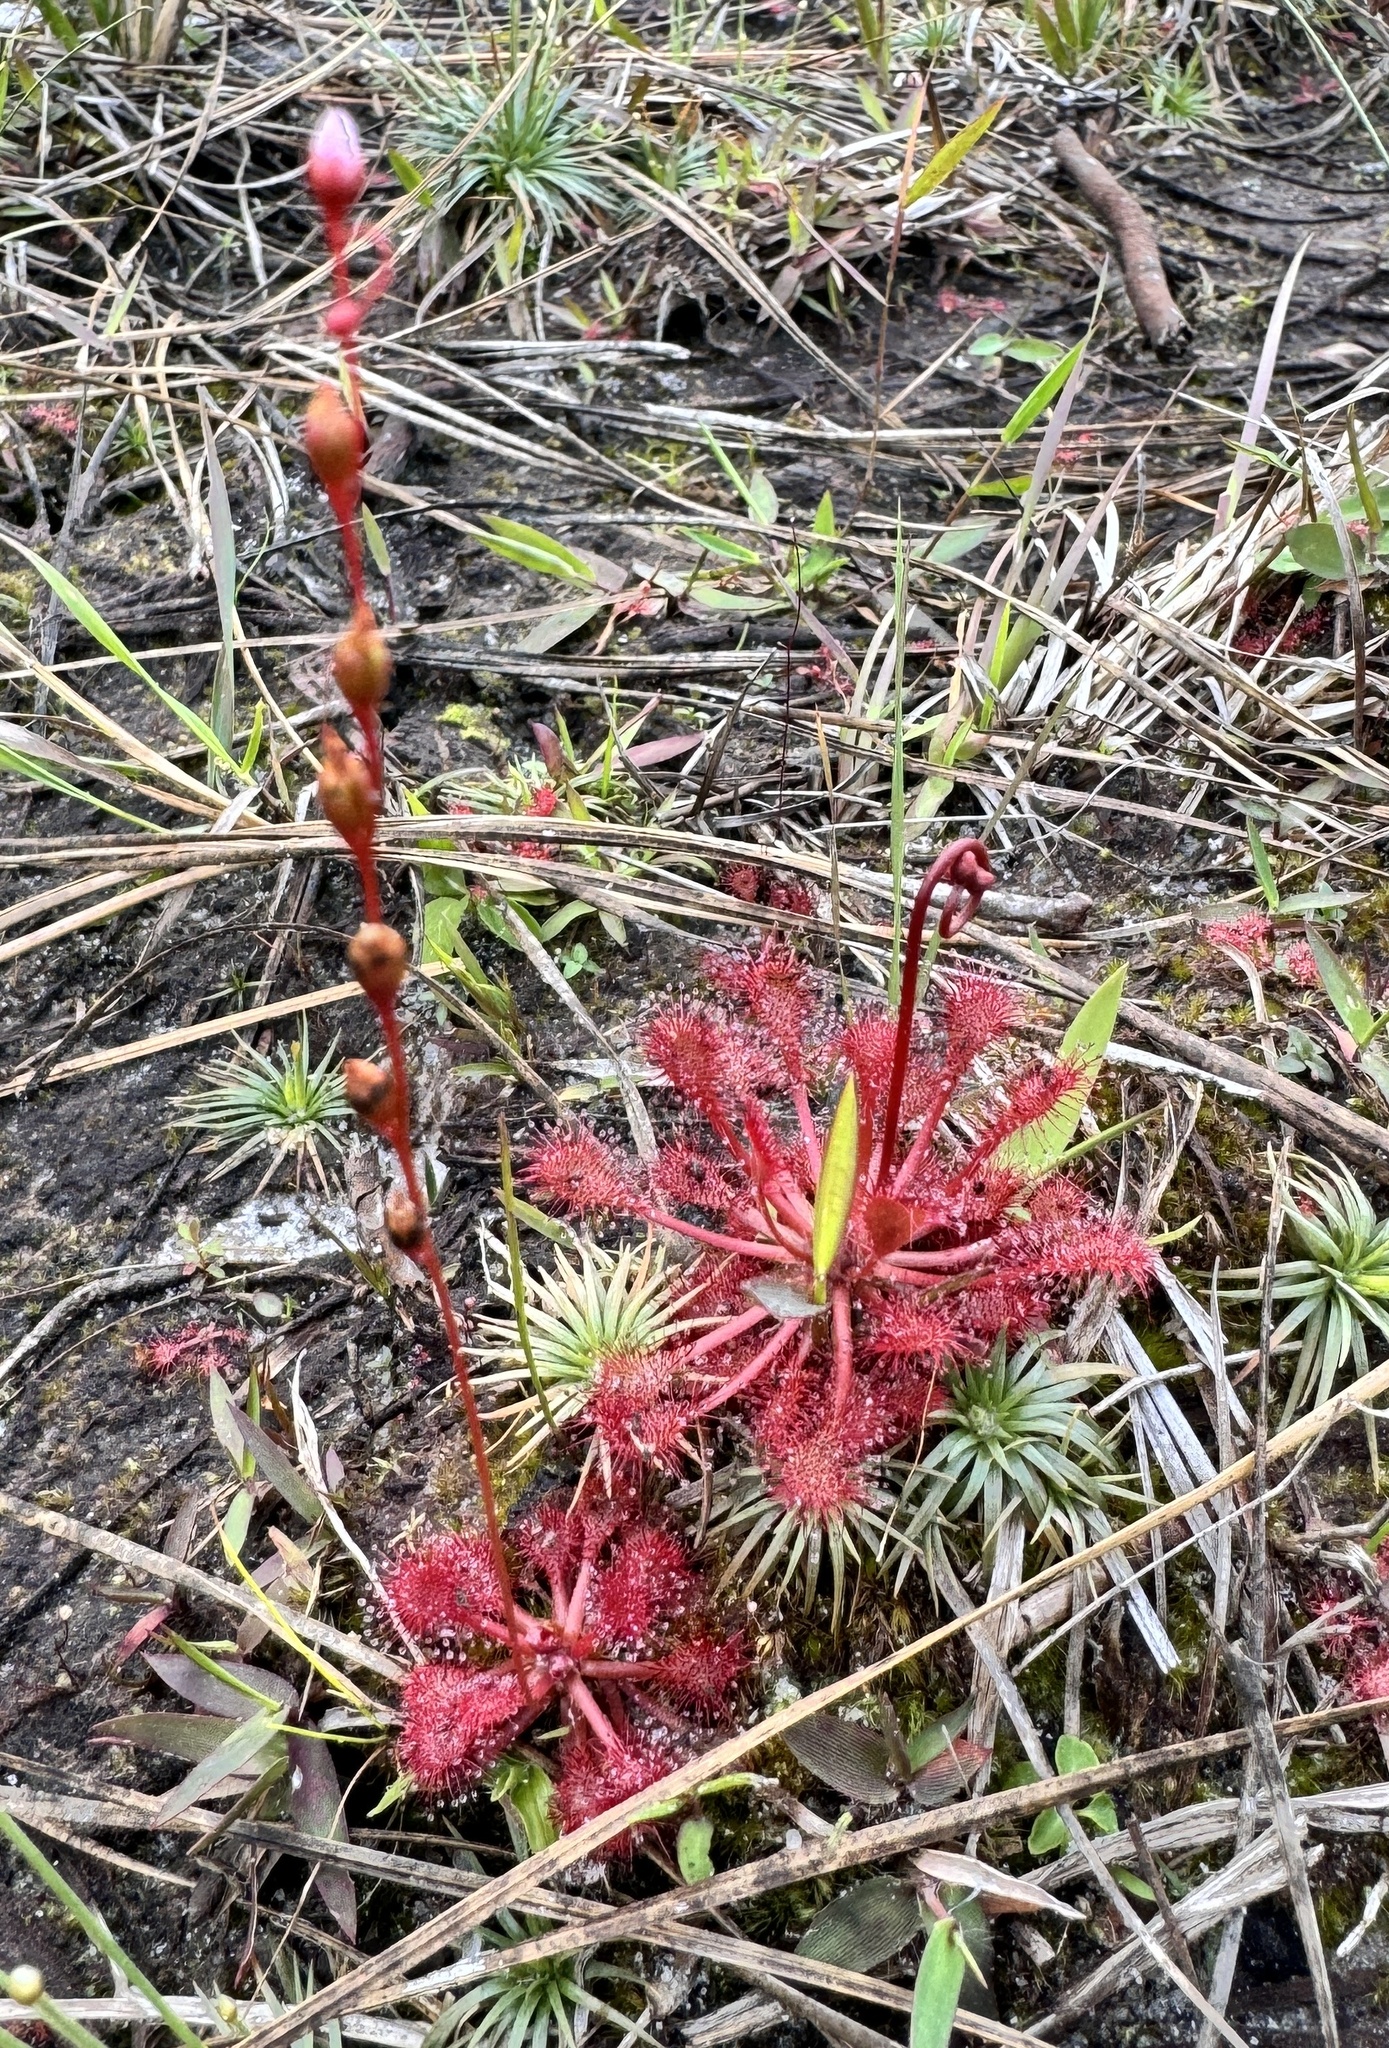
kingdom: Plantae
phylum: Tracheophyta
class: Magnoliopsida
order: Caryophyllales
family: Droseraceae
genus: Drosera
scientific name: Drosera capillaris
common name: Pink sundew
